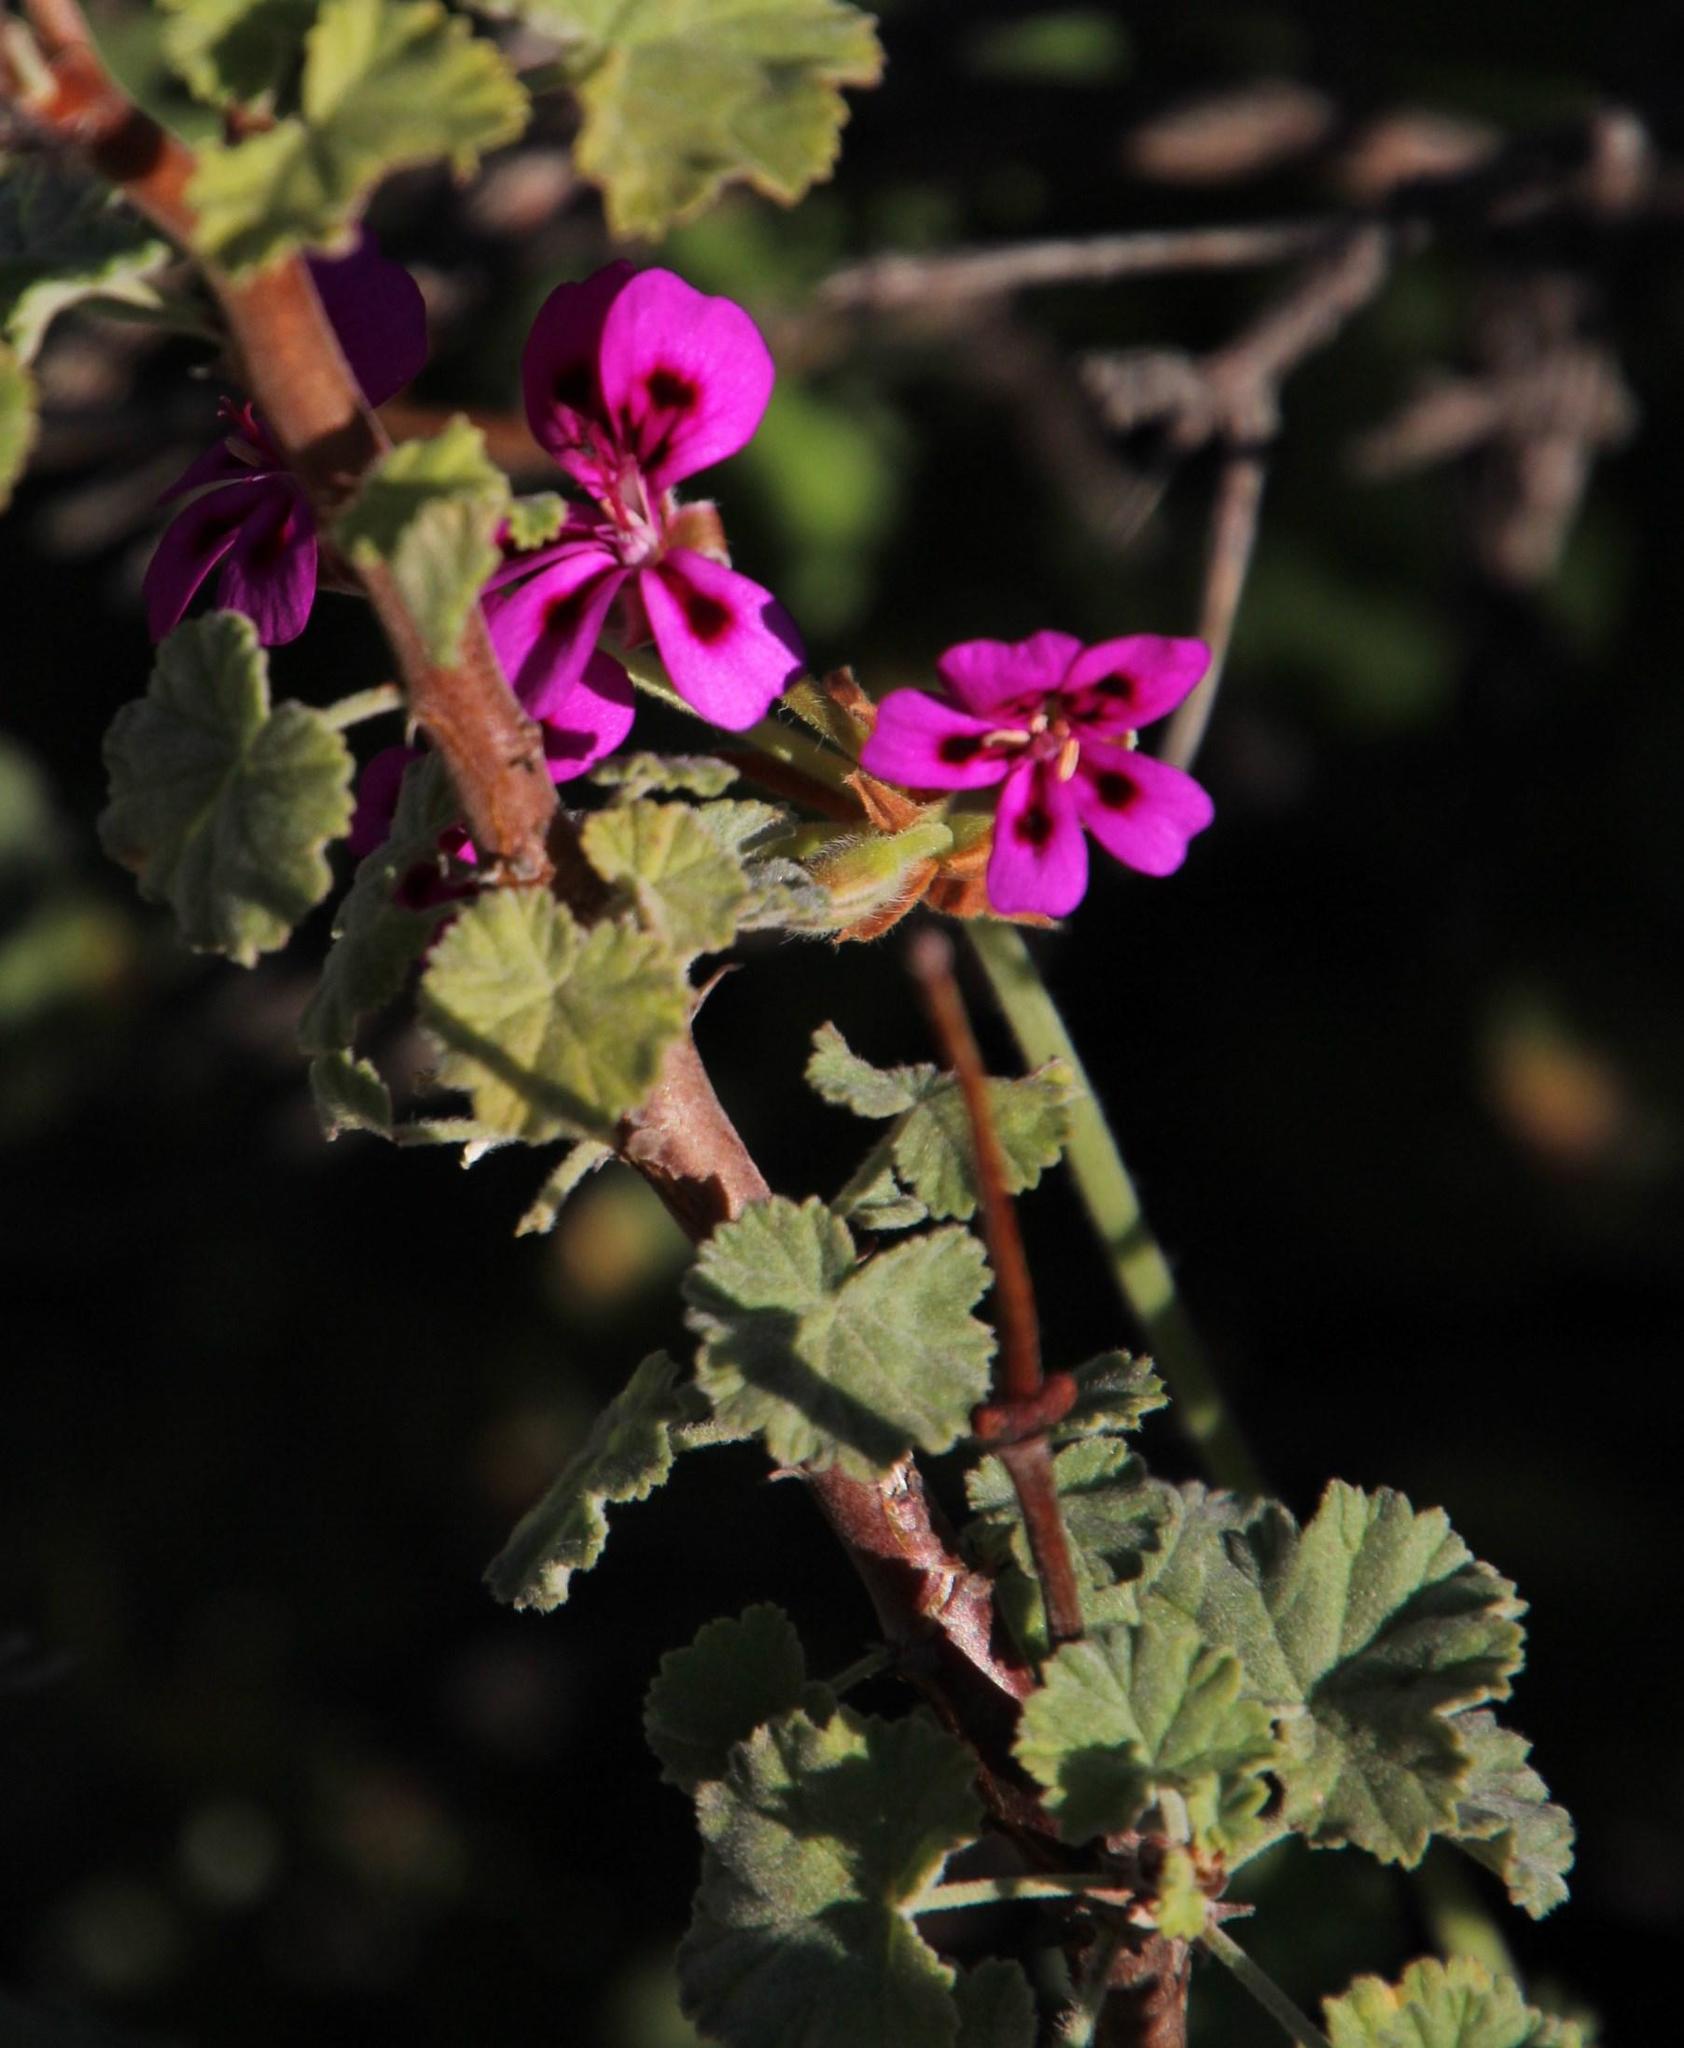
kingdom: Plantae
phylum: Tracheophyta
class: Magnoliopsida
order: Geraniales
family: Geraniaceae
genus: Pelargonium
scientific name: Pelargonium magenteum
